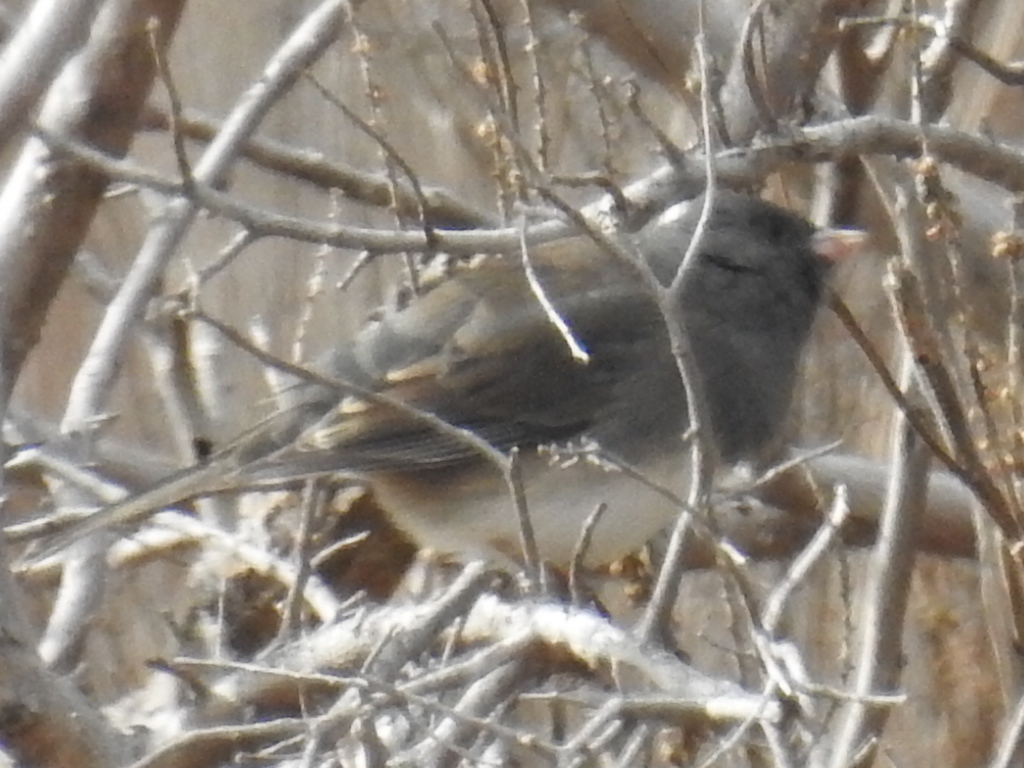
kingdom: Animalia
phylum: Chordata
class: Aves
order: Passeriformes
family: Passerellidae
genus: Junco
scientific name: Junco hyemalis
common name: Dark-eyed junco
